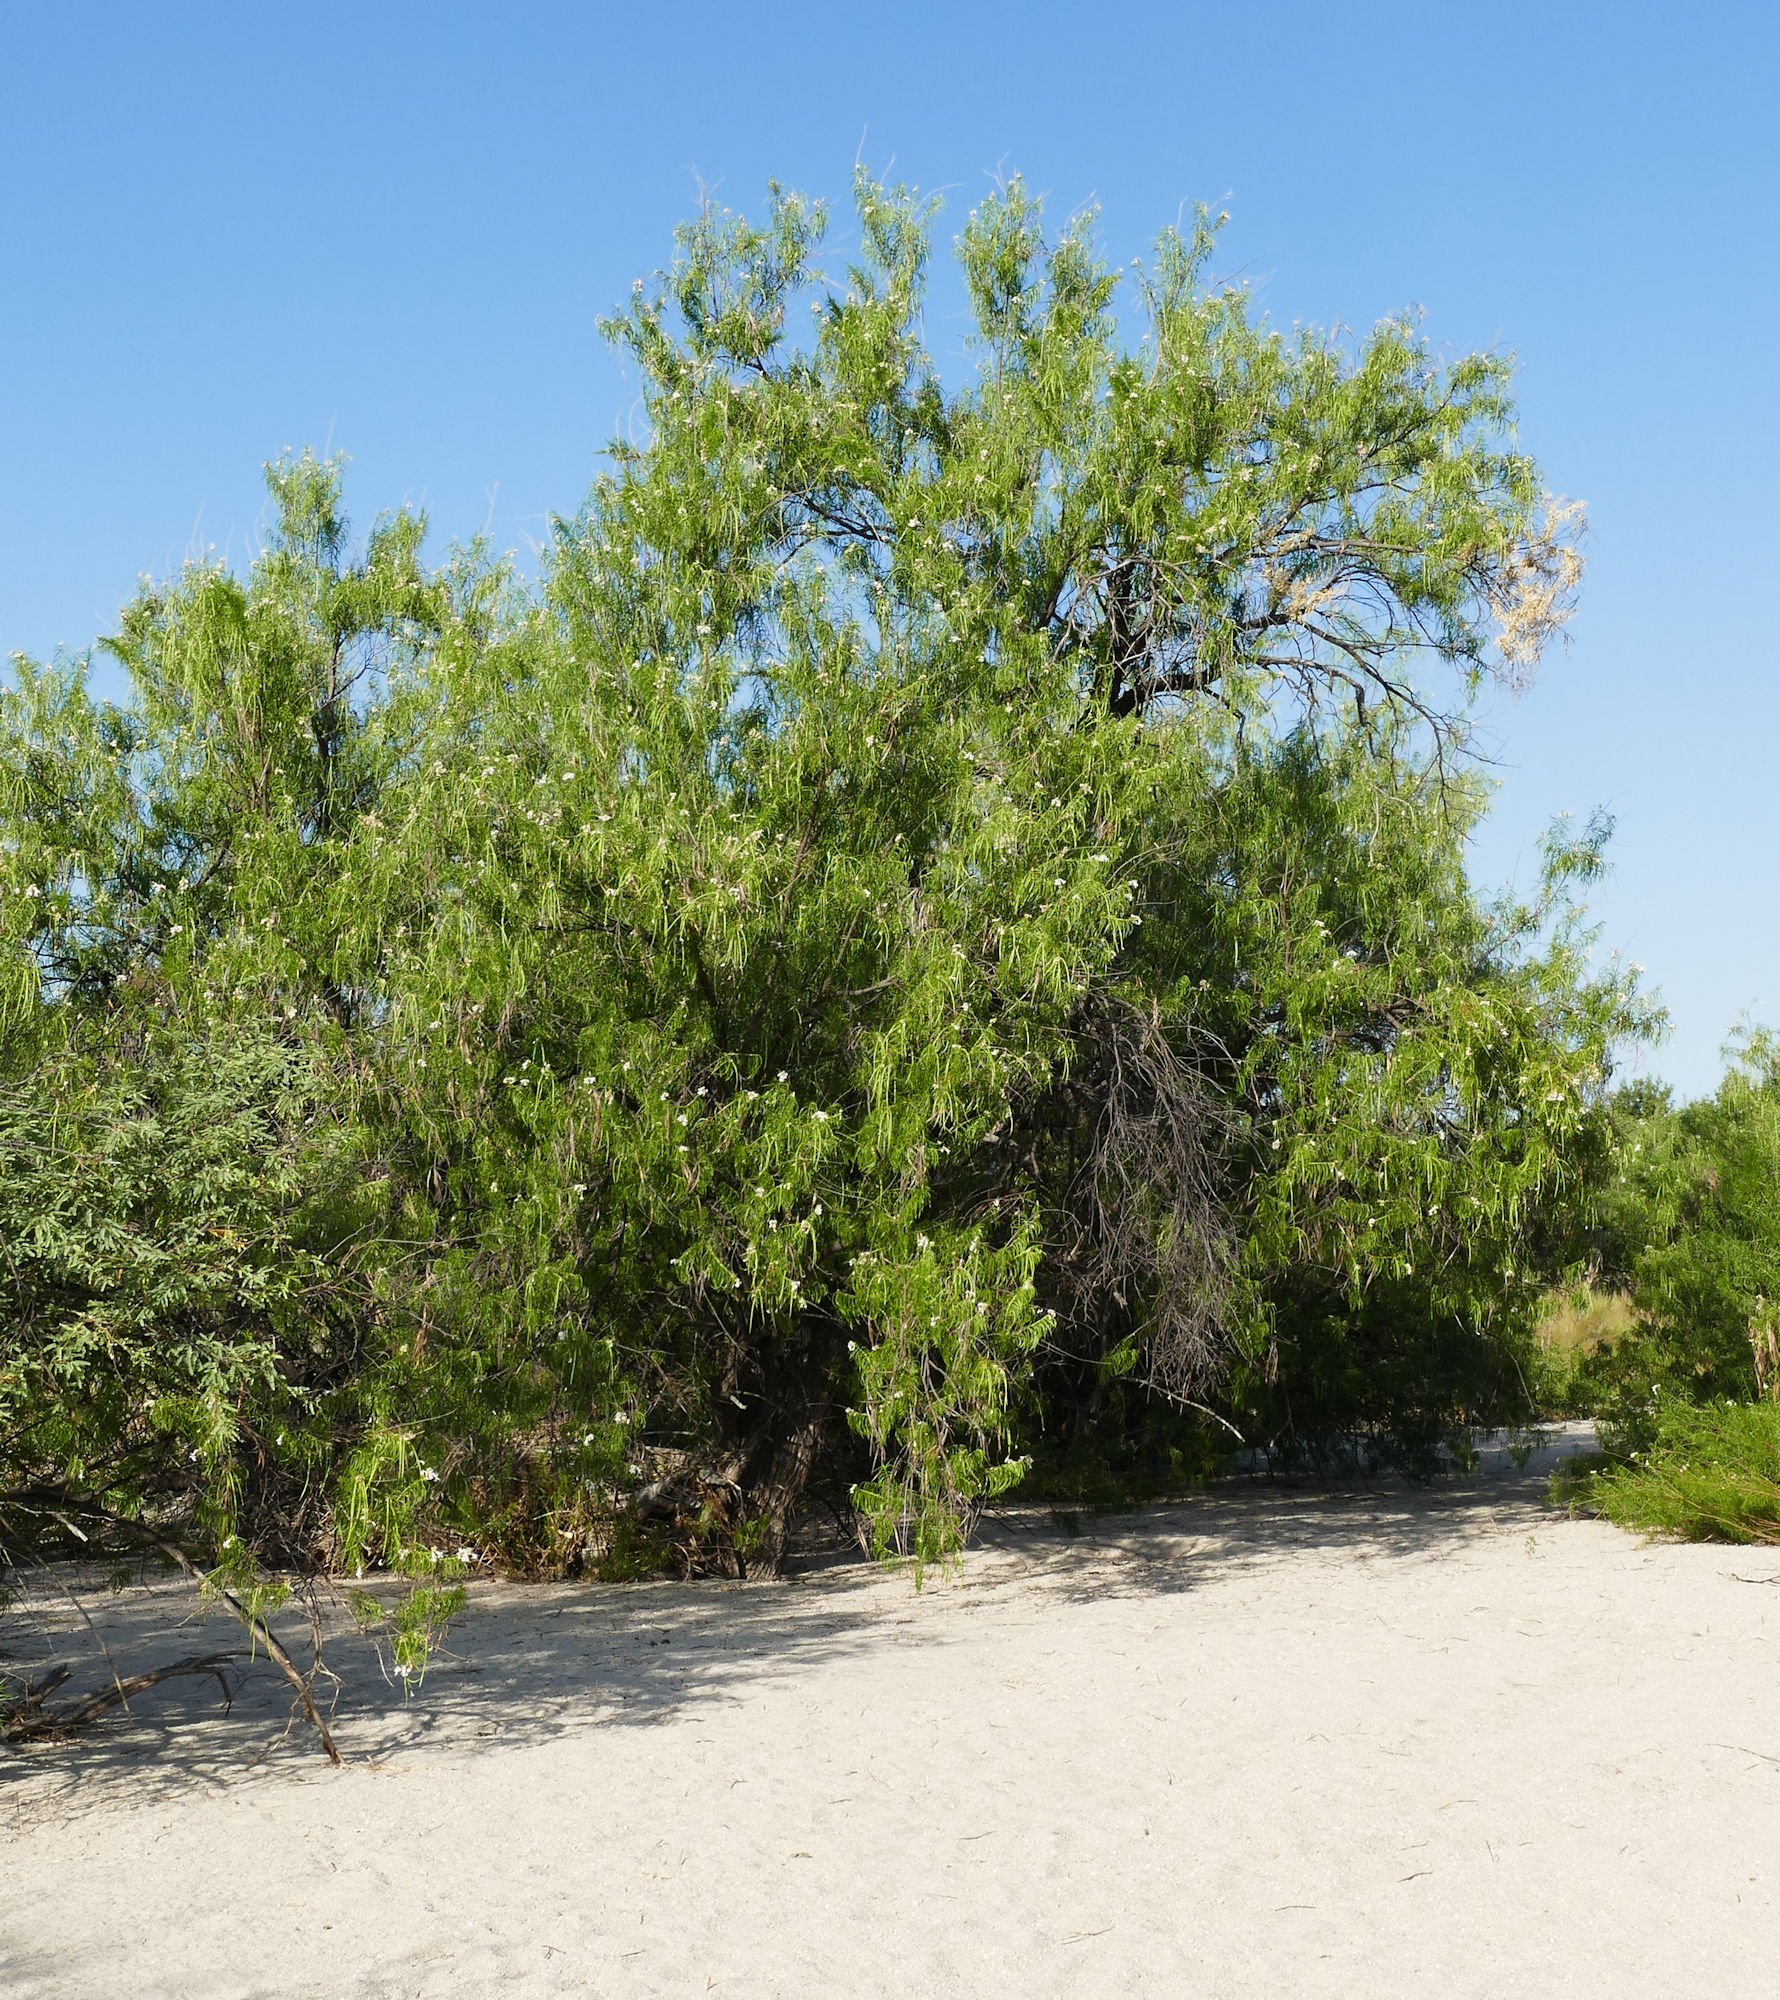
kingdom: Plantae
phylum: Tracheophyta
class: Magnoliopsida
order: Lamiales
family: Bignoniaceae
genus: Chilopsis
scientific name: Chilopsis linearis
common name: Desert-willow
